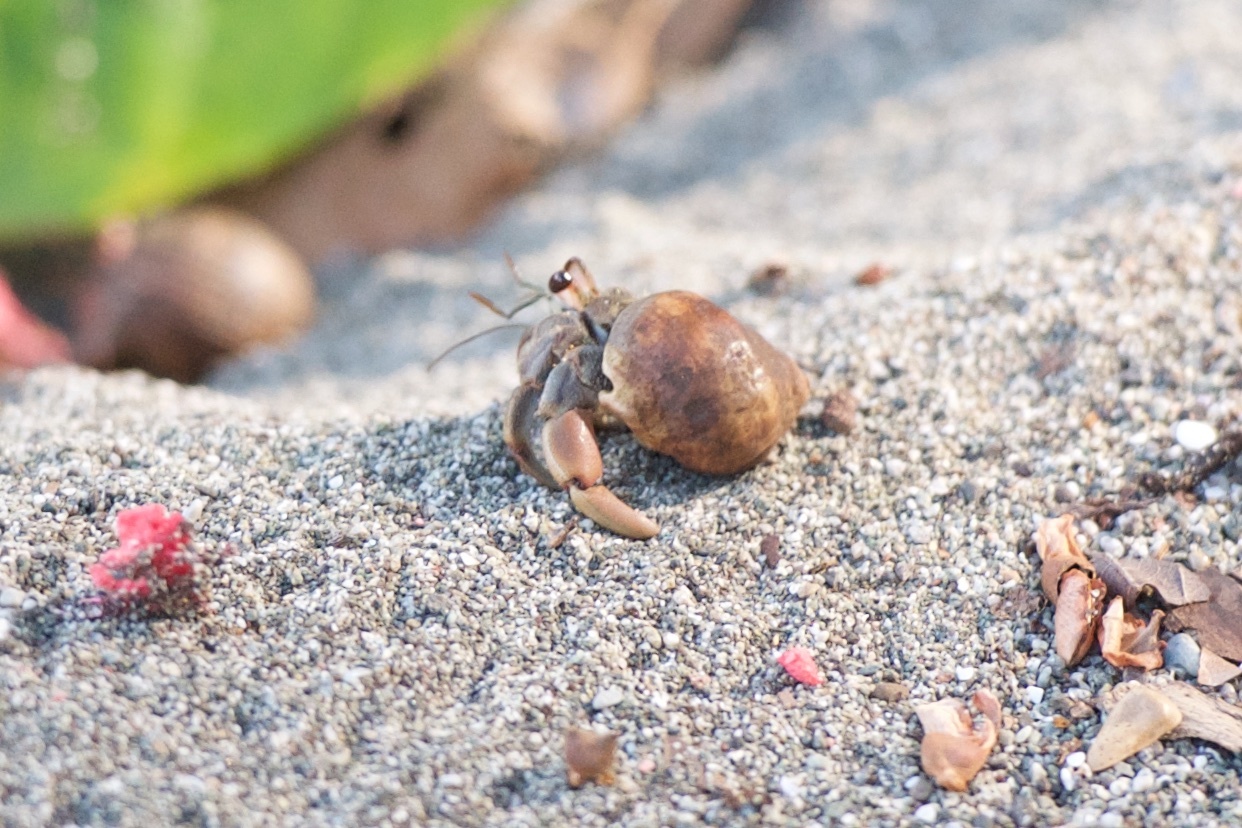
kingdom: Animalia
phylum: Arthropoda
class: Malacostraca
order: Decapoda
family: Coenobitidae
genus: Coenobita
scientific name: Coenobita compressus
